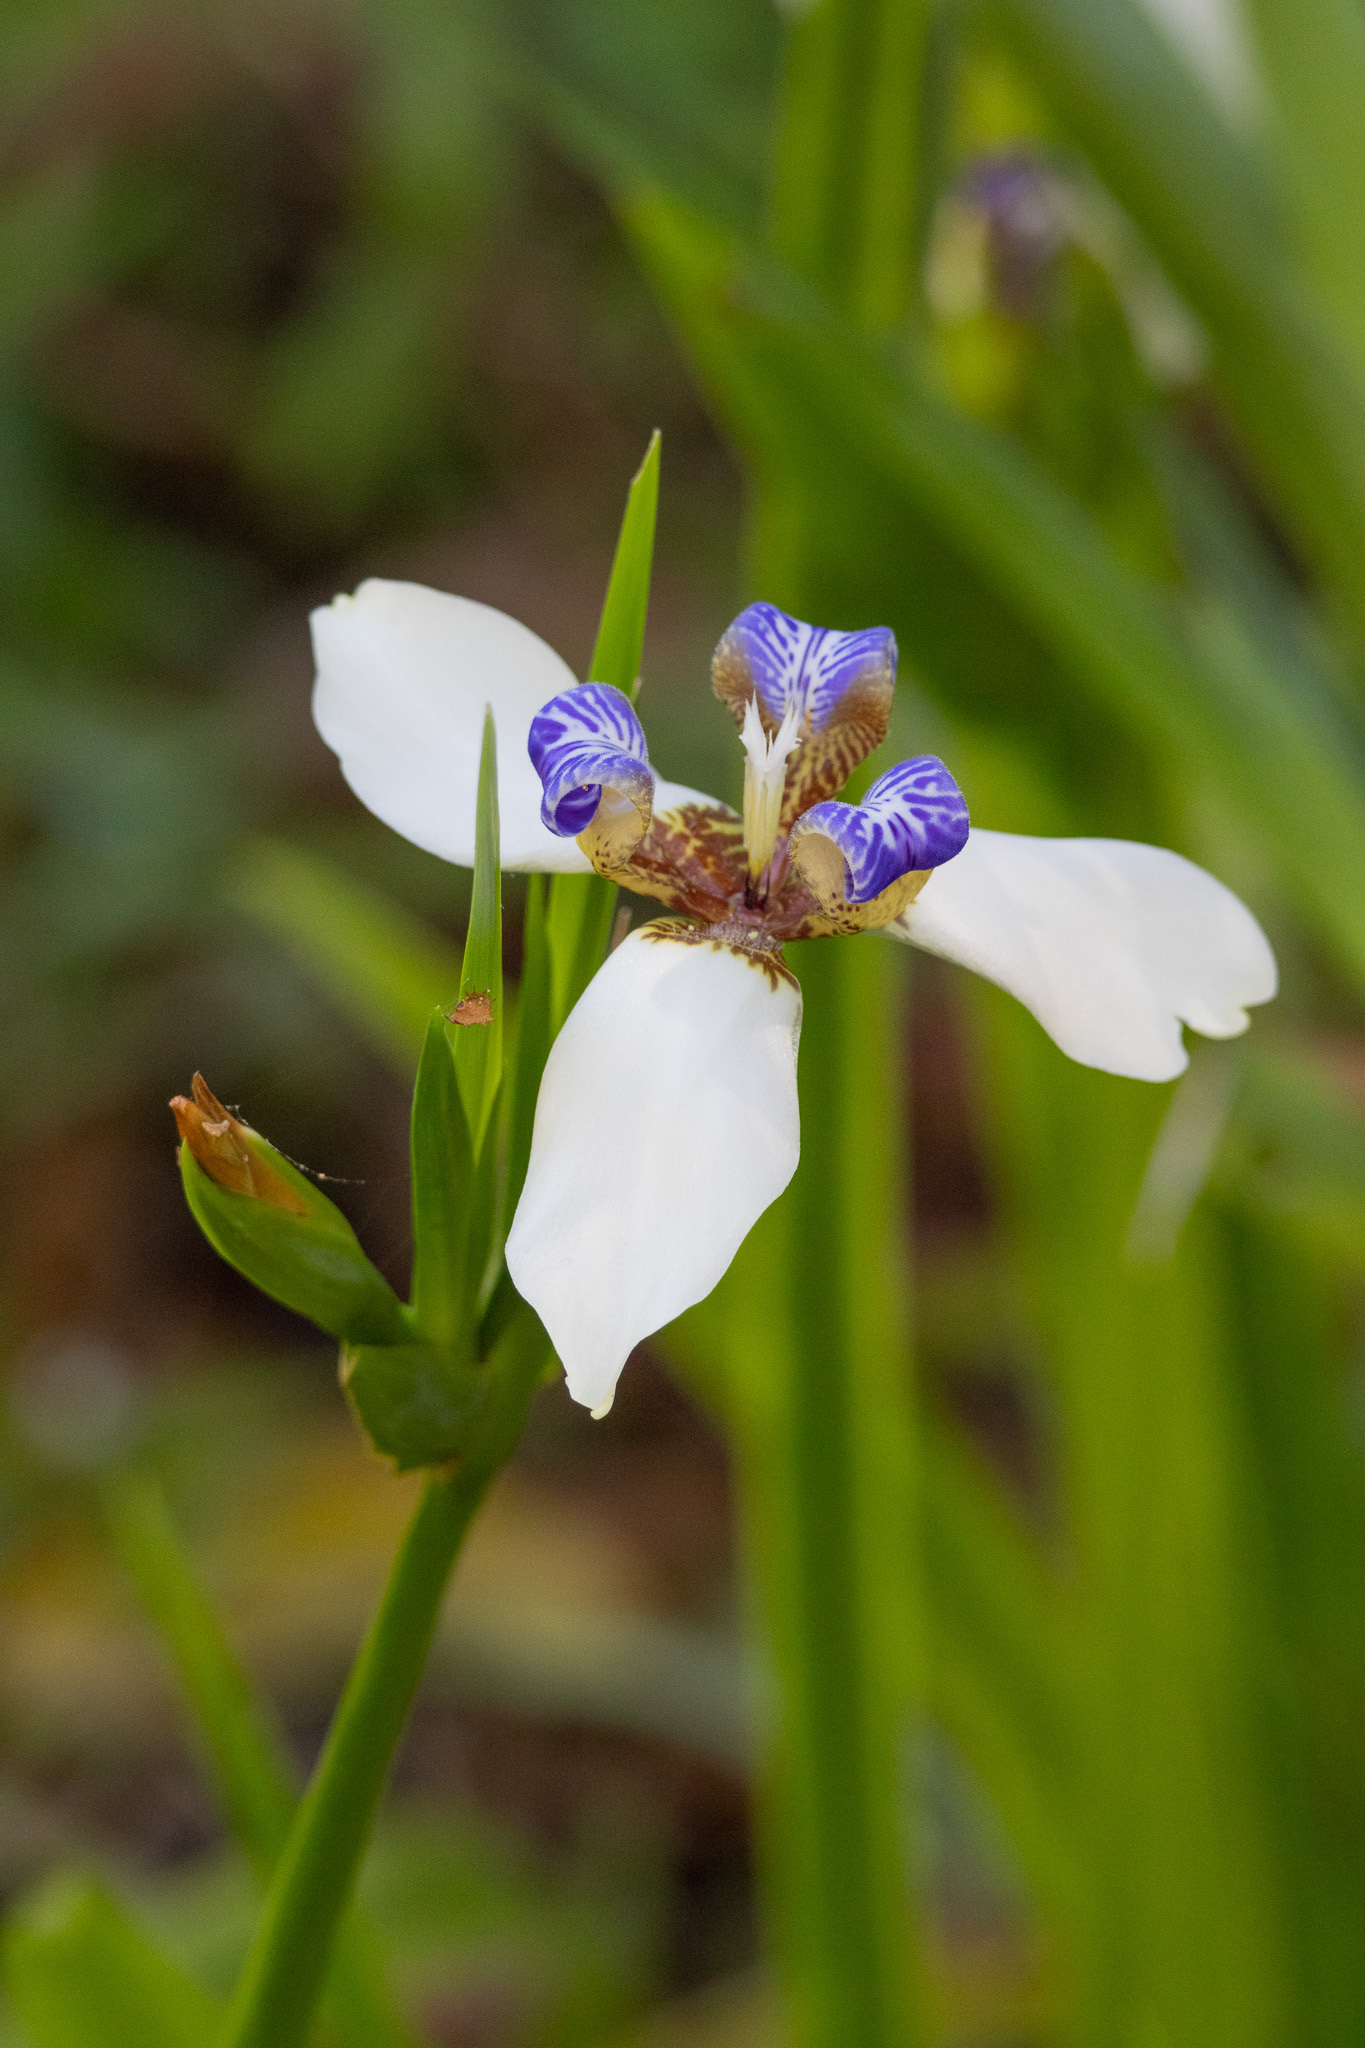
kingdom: Plantae
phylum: Tracheophyta
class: Liliopsida
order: Asparagales
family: Iridaceae
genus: Trimezia
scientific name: Trimezia northiana
